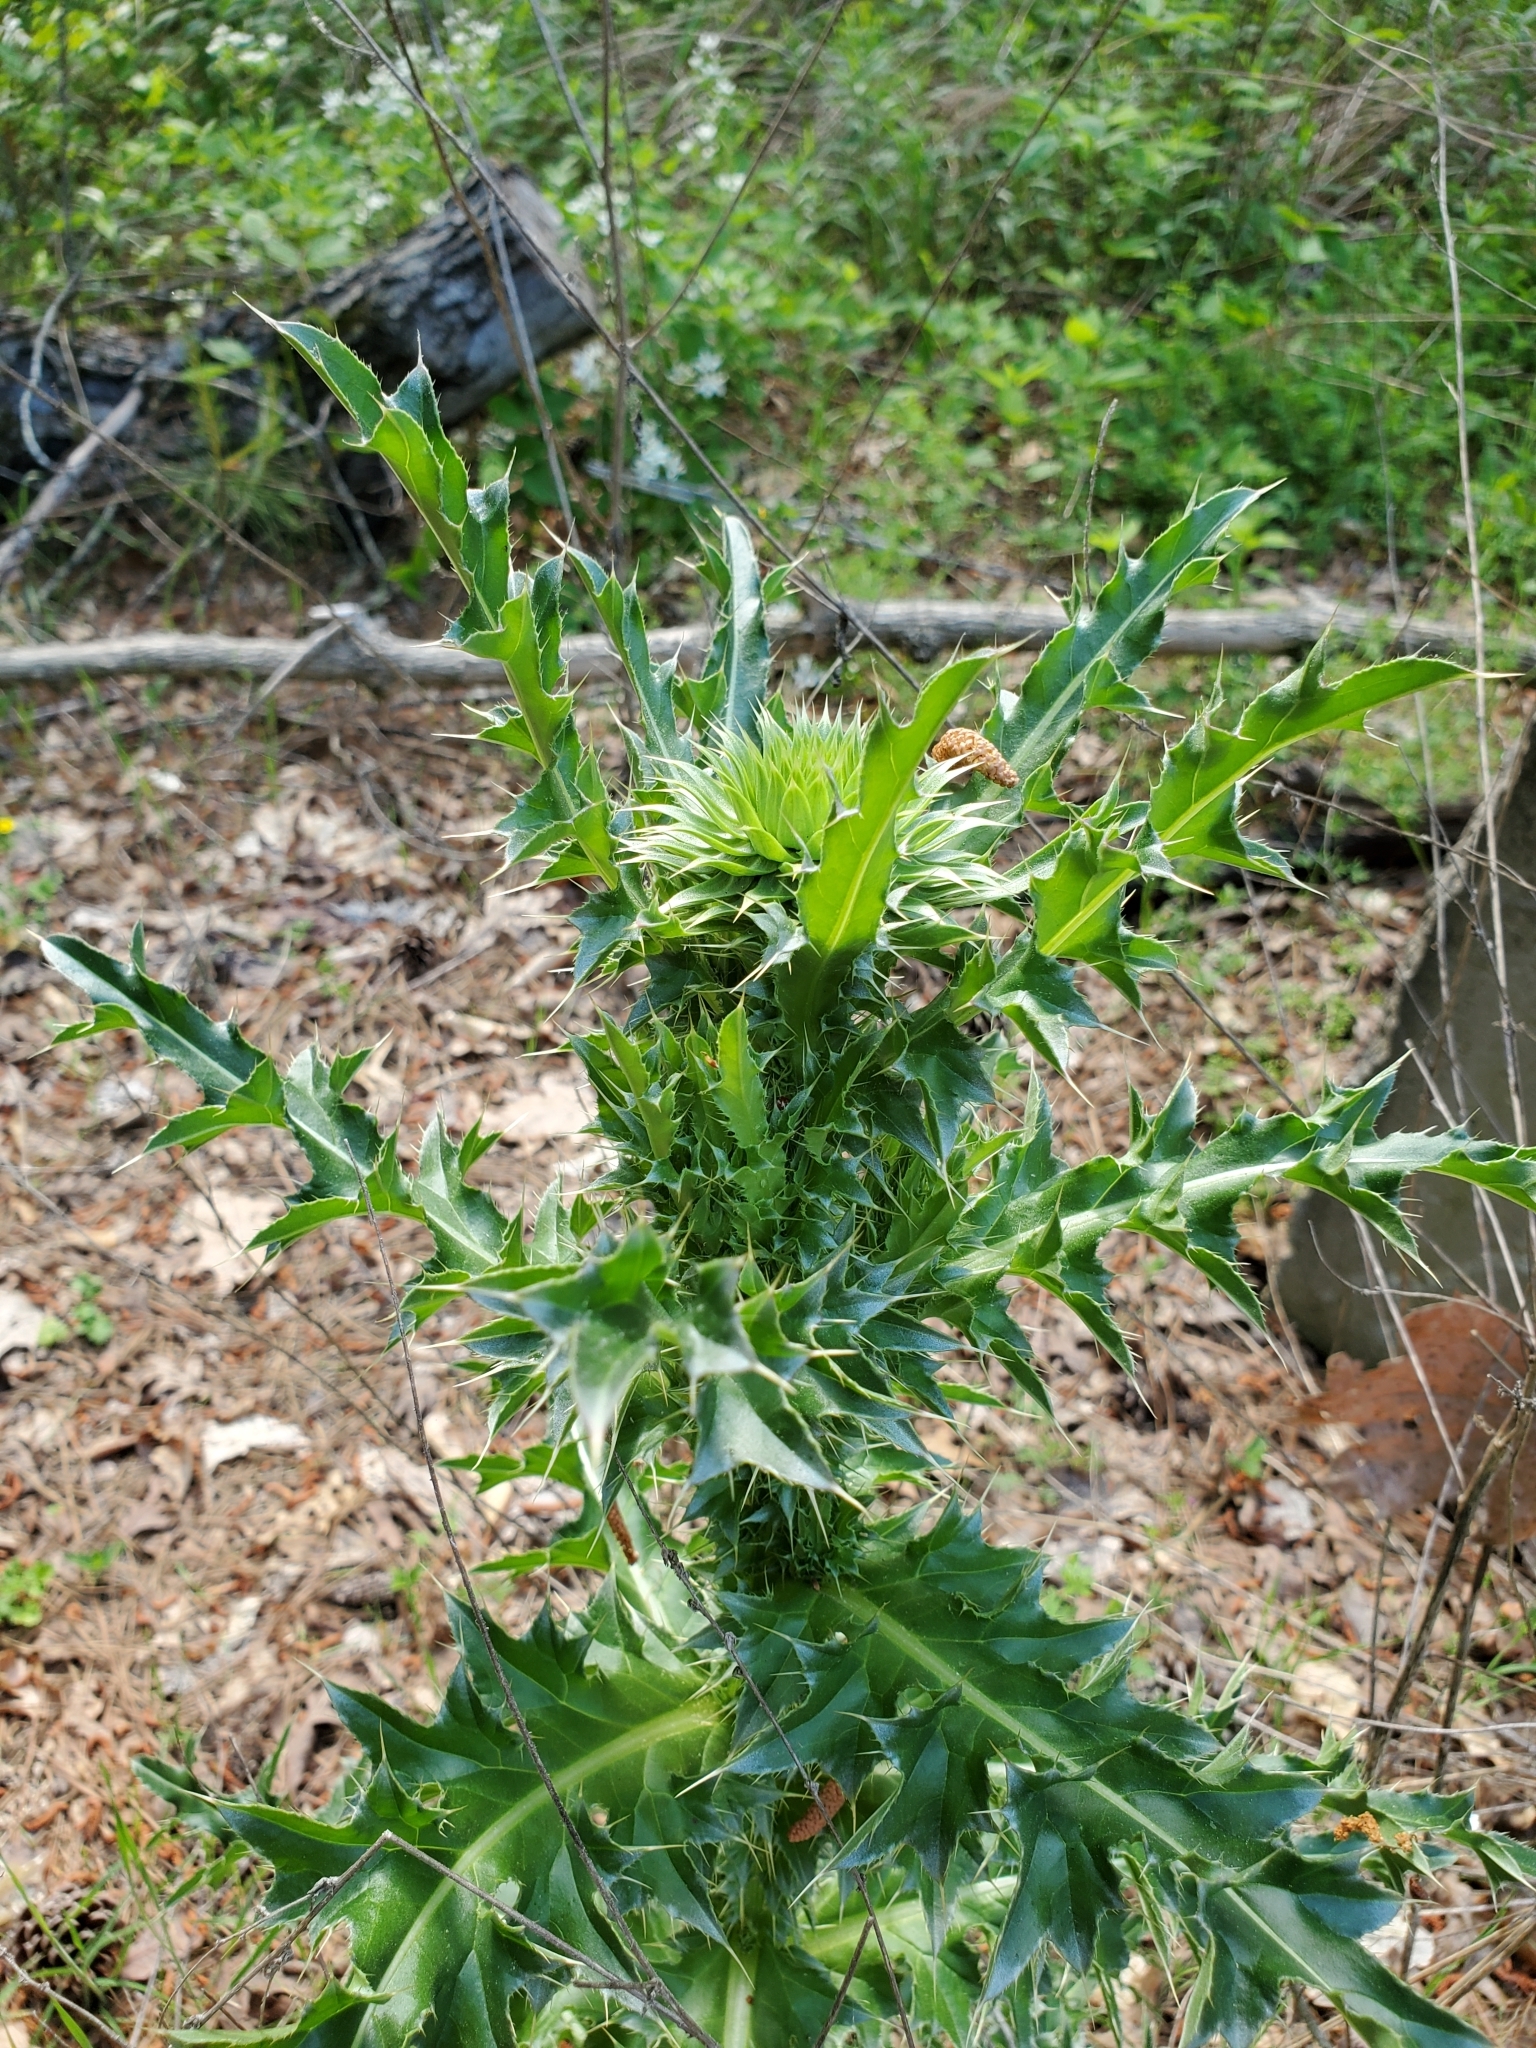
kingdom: Plantae
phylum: Tracheophyta
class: Magnoliopsida
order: Asterales
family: Asteraceae
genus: Carduus
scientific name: Carduus nutans
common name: Musk thistle
